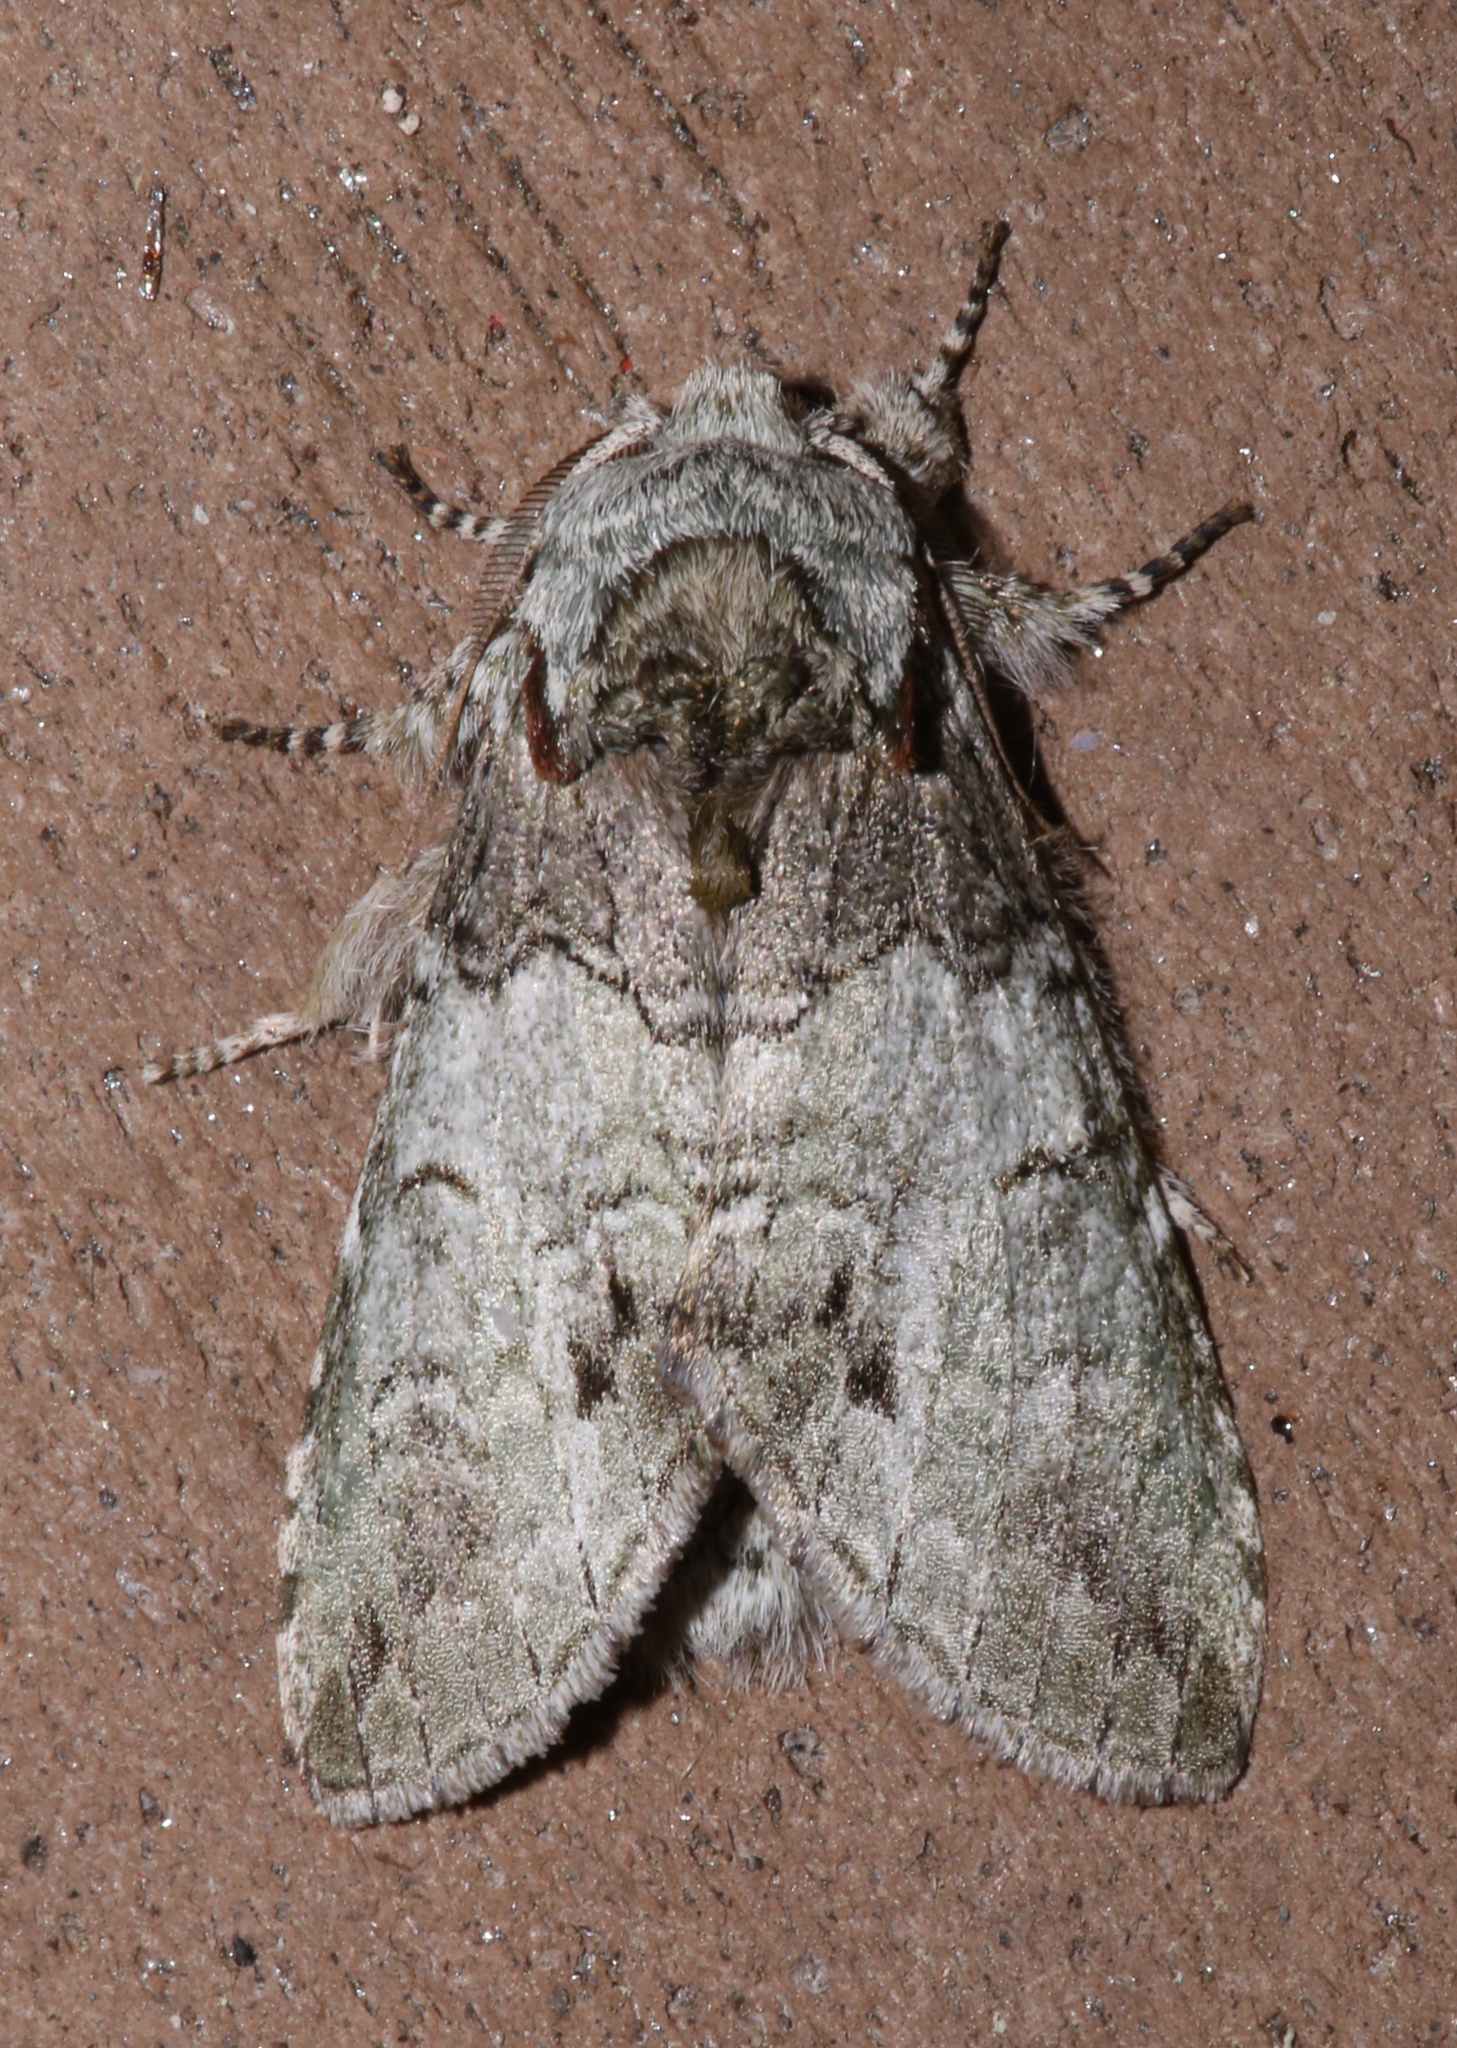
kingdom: Animalia
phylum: Arthropoda
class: Insecta
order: Lepidoptera
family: Notodontidae
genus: Macrurocampa
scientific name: Macrurocampa marthesia
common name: Mottled prominent
